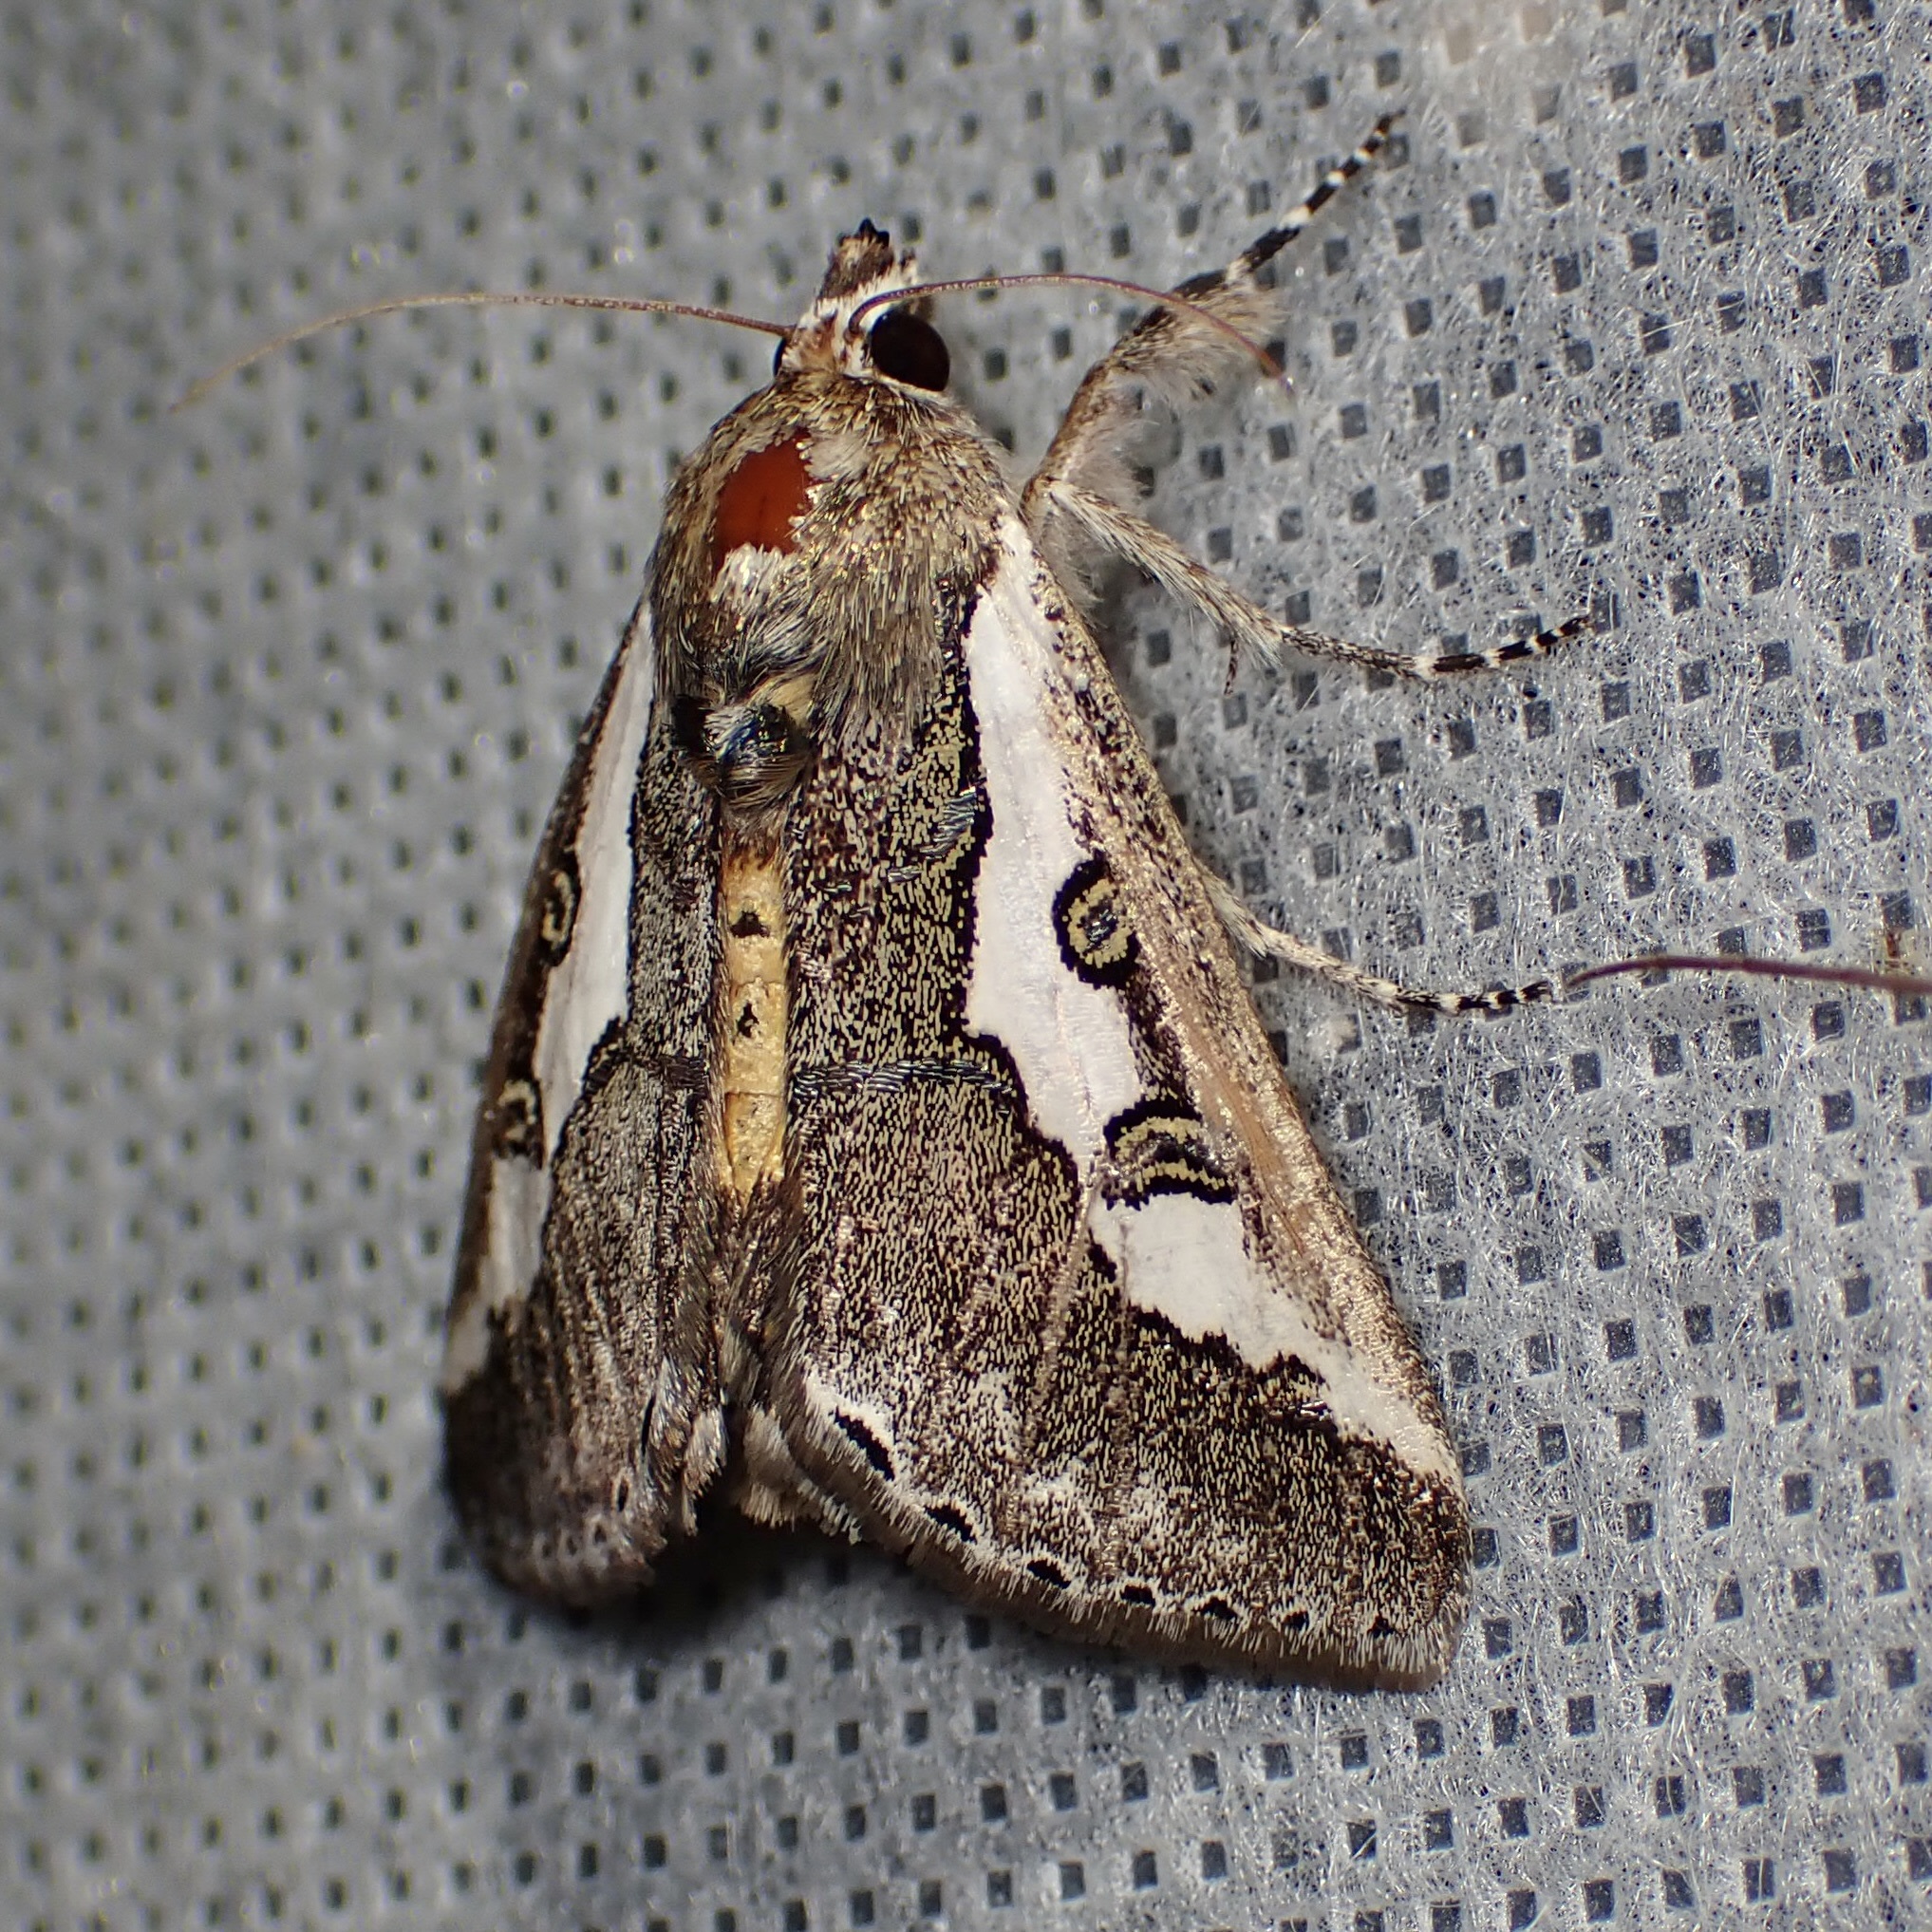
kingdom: Animalia
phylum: Arthropoda
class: Insecta
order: Lepidoptera
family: Noctuidae
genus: Euscirrhopterus
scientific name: Euscirrhopterus gloveri
